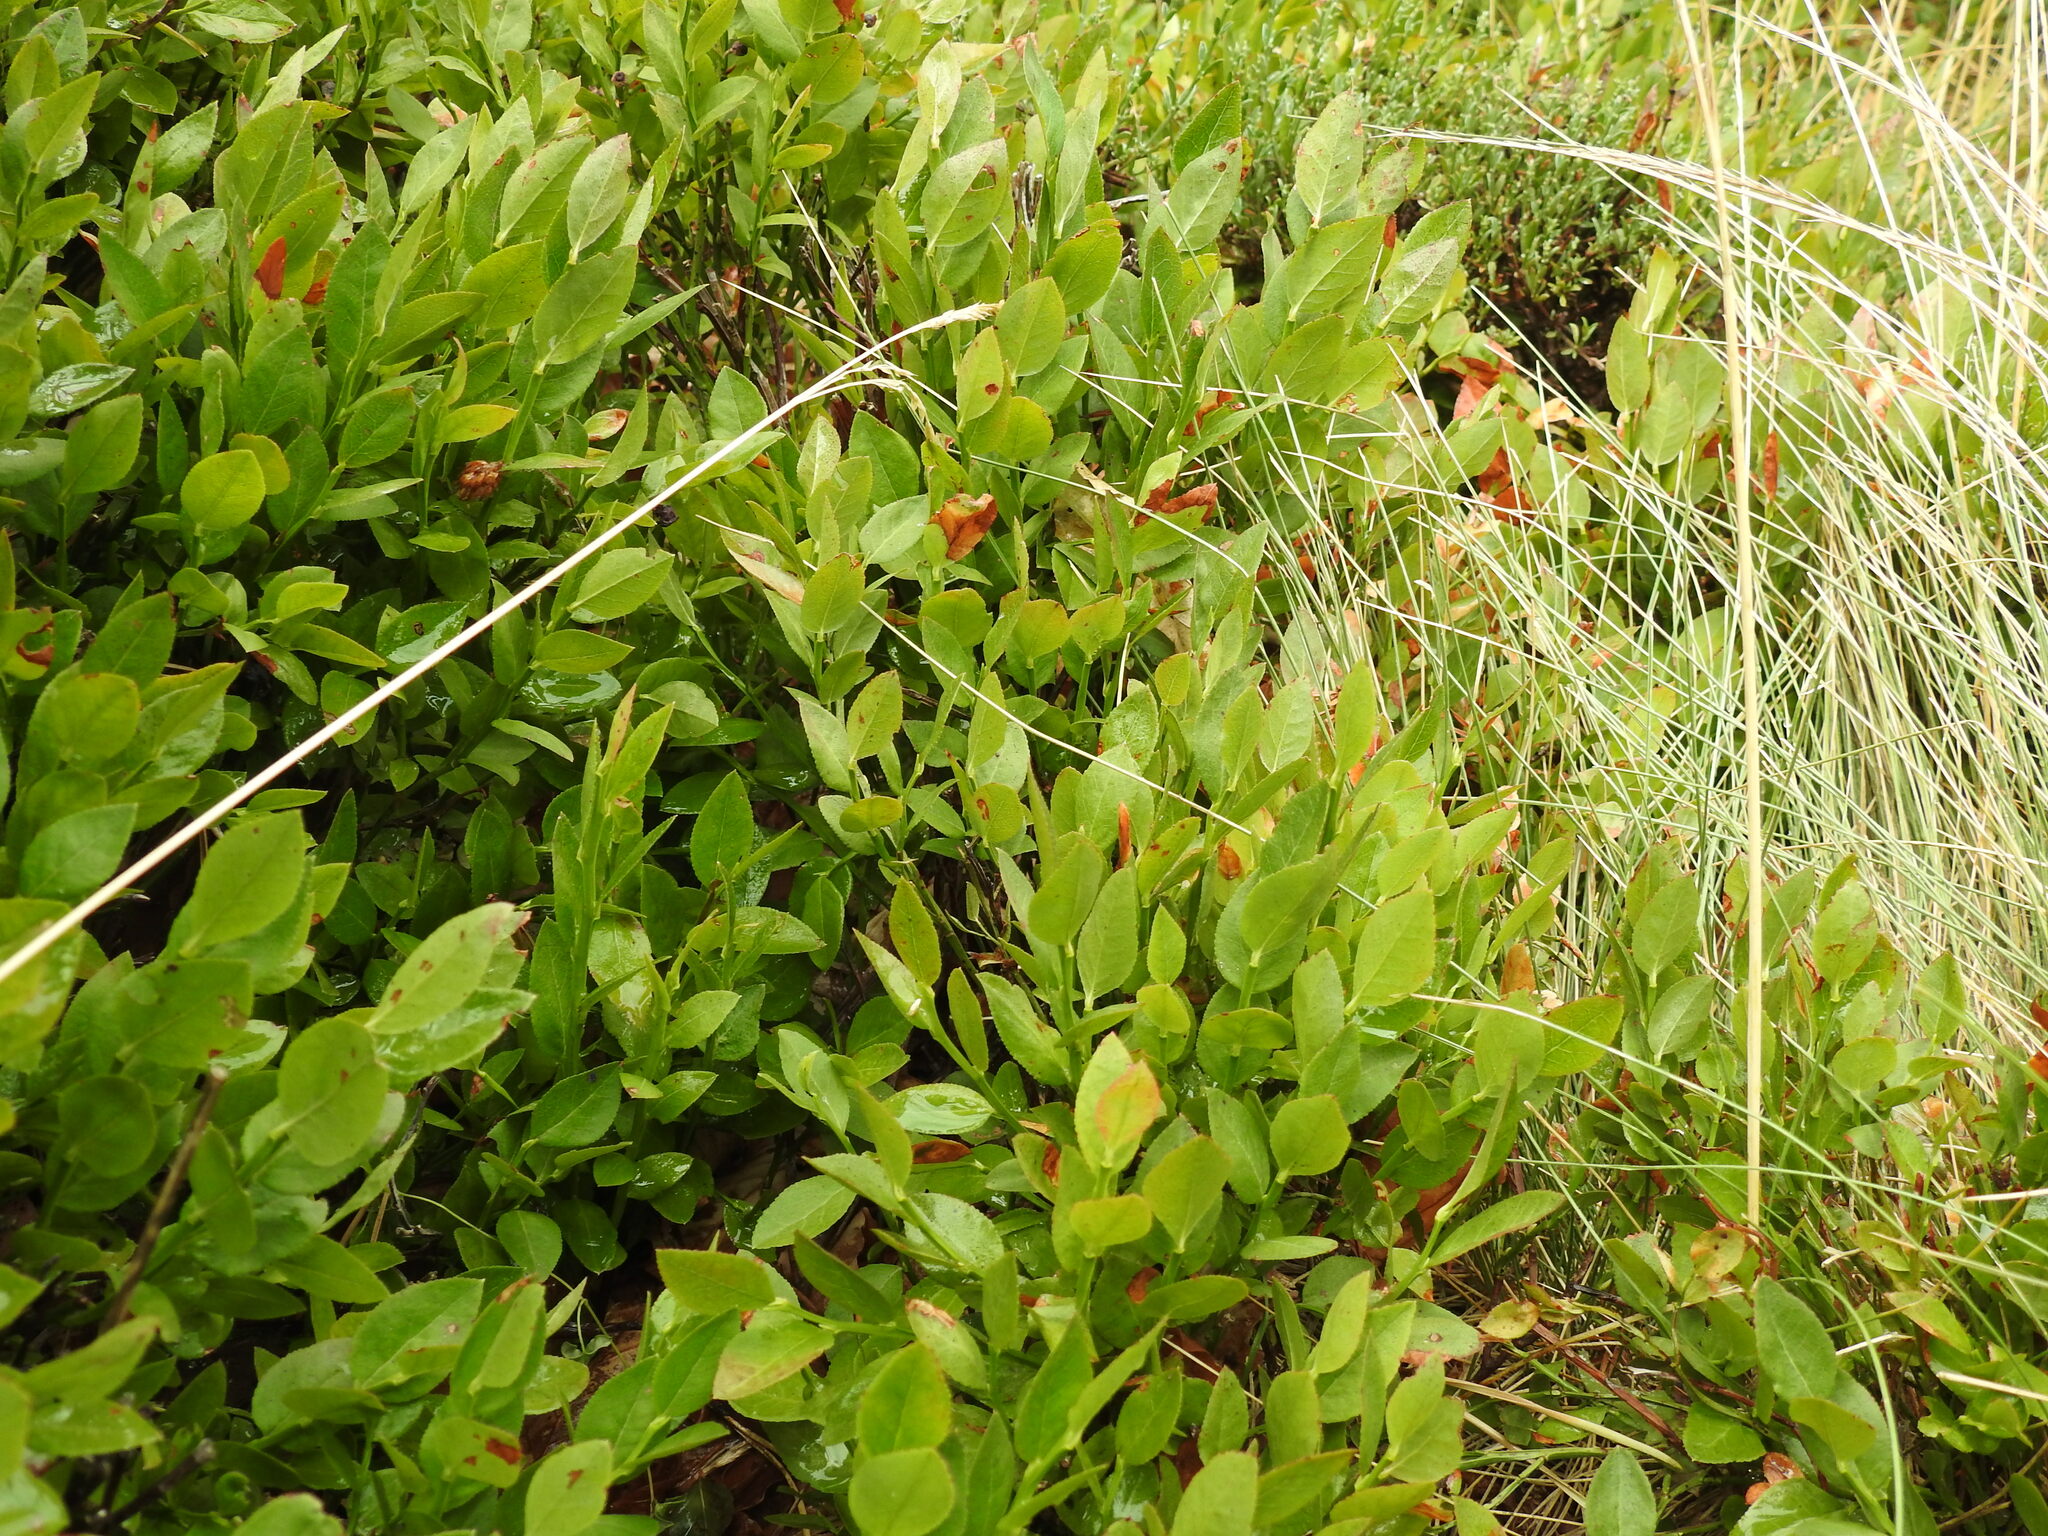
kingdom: Plantae
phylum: Tracheophyta
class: Magnoliopsida
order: Ericales
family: Ericaceae
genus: Vaccinium
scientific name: Vaccinium myrtillus
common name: Bilberry
